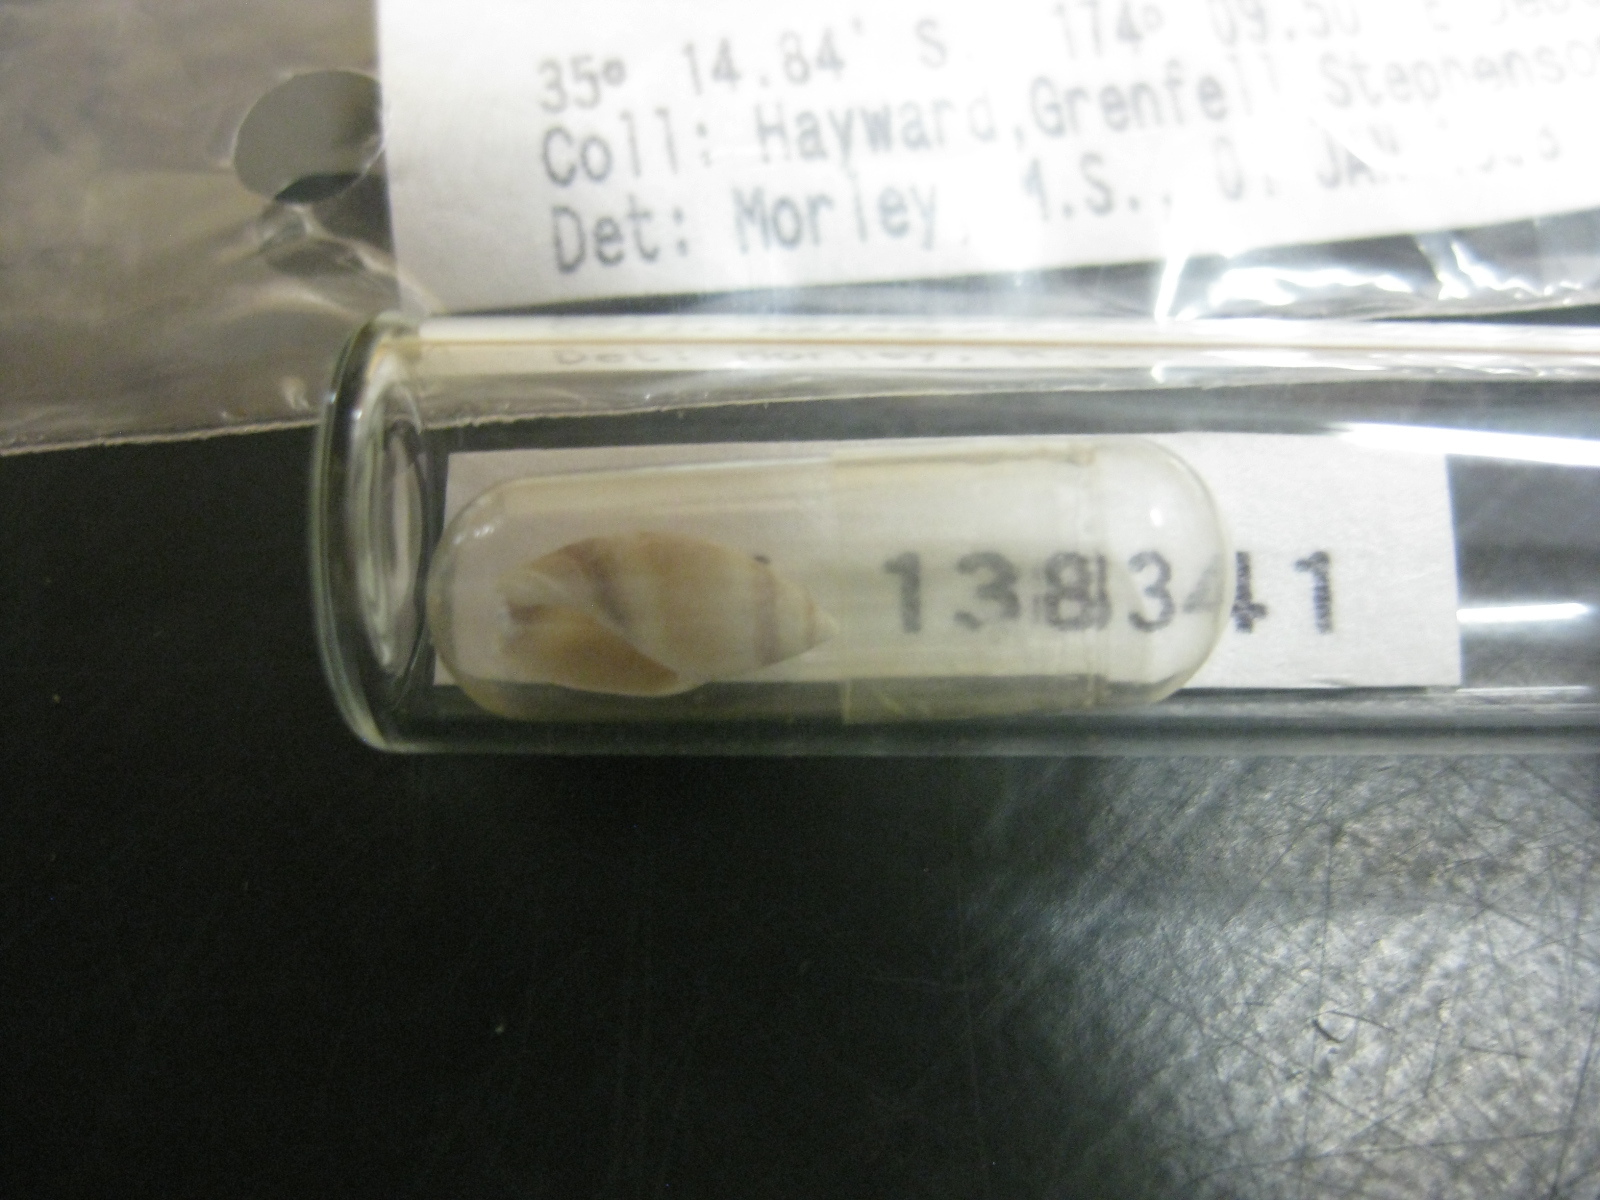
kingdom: Animalia
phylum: Mollusca
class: Gastropoda
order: Neogastropoda
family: Ancillariidae
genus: Amalda
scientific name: Amalda northlandica
